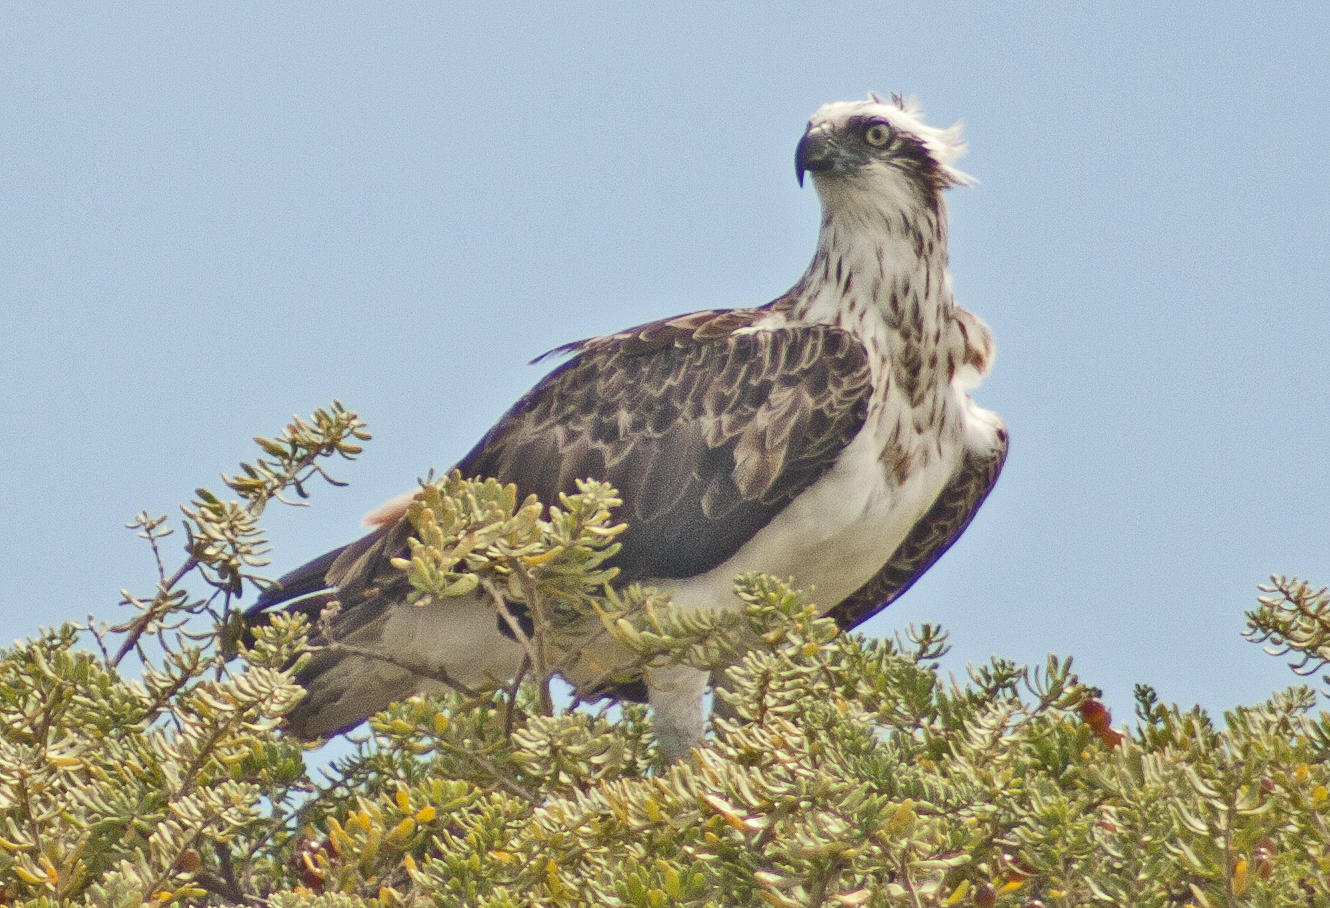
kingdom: Animalia
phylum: Chordata
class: Aves
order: Accipitriformes
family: Pandionidae
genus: Pandion
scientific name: Pandion cristatus
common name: Eastern osprey
